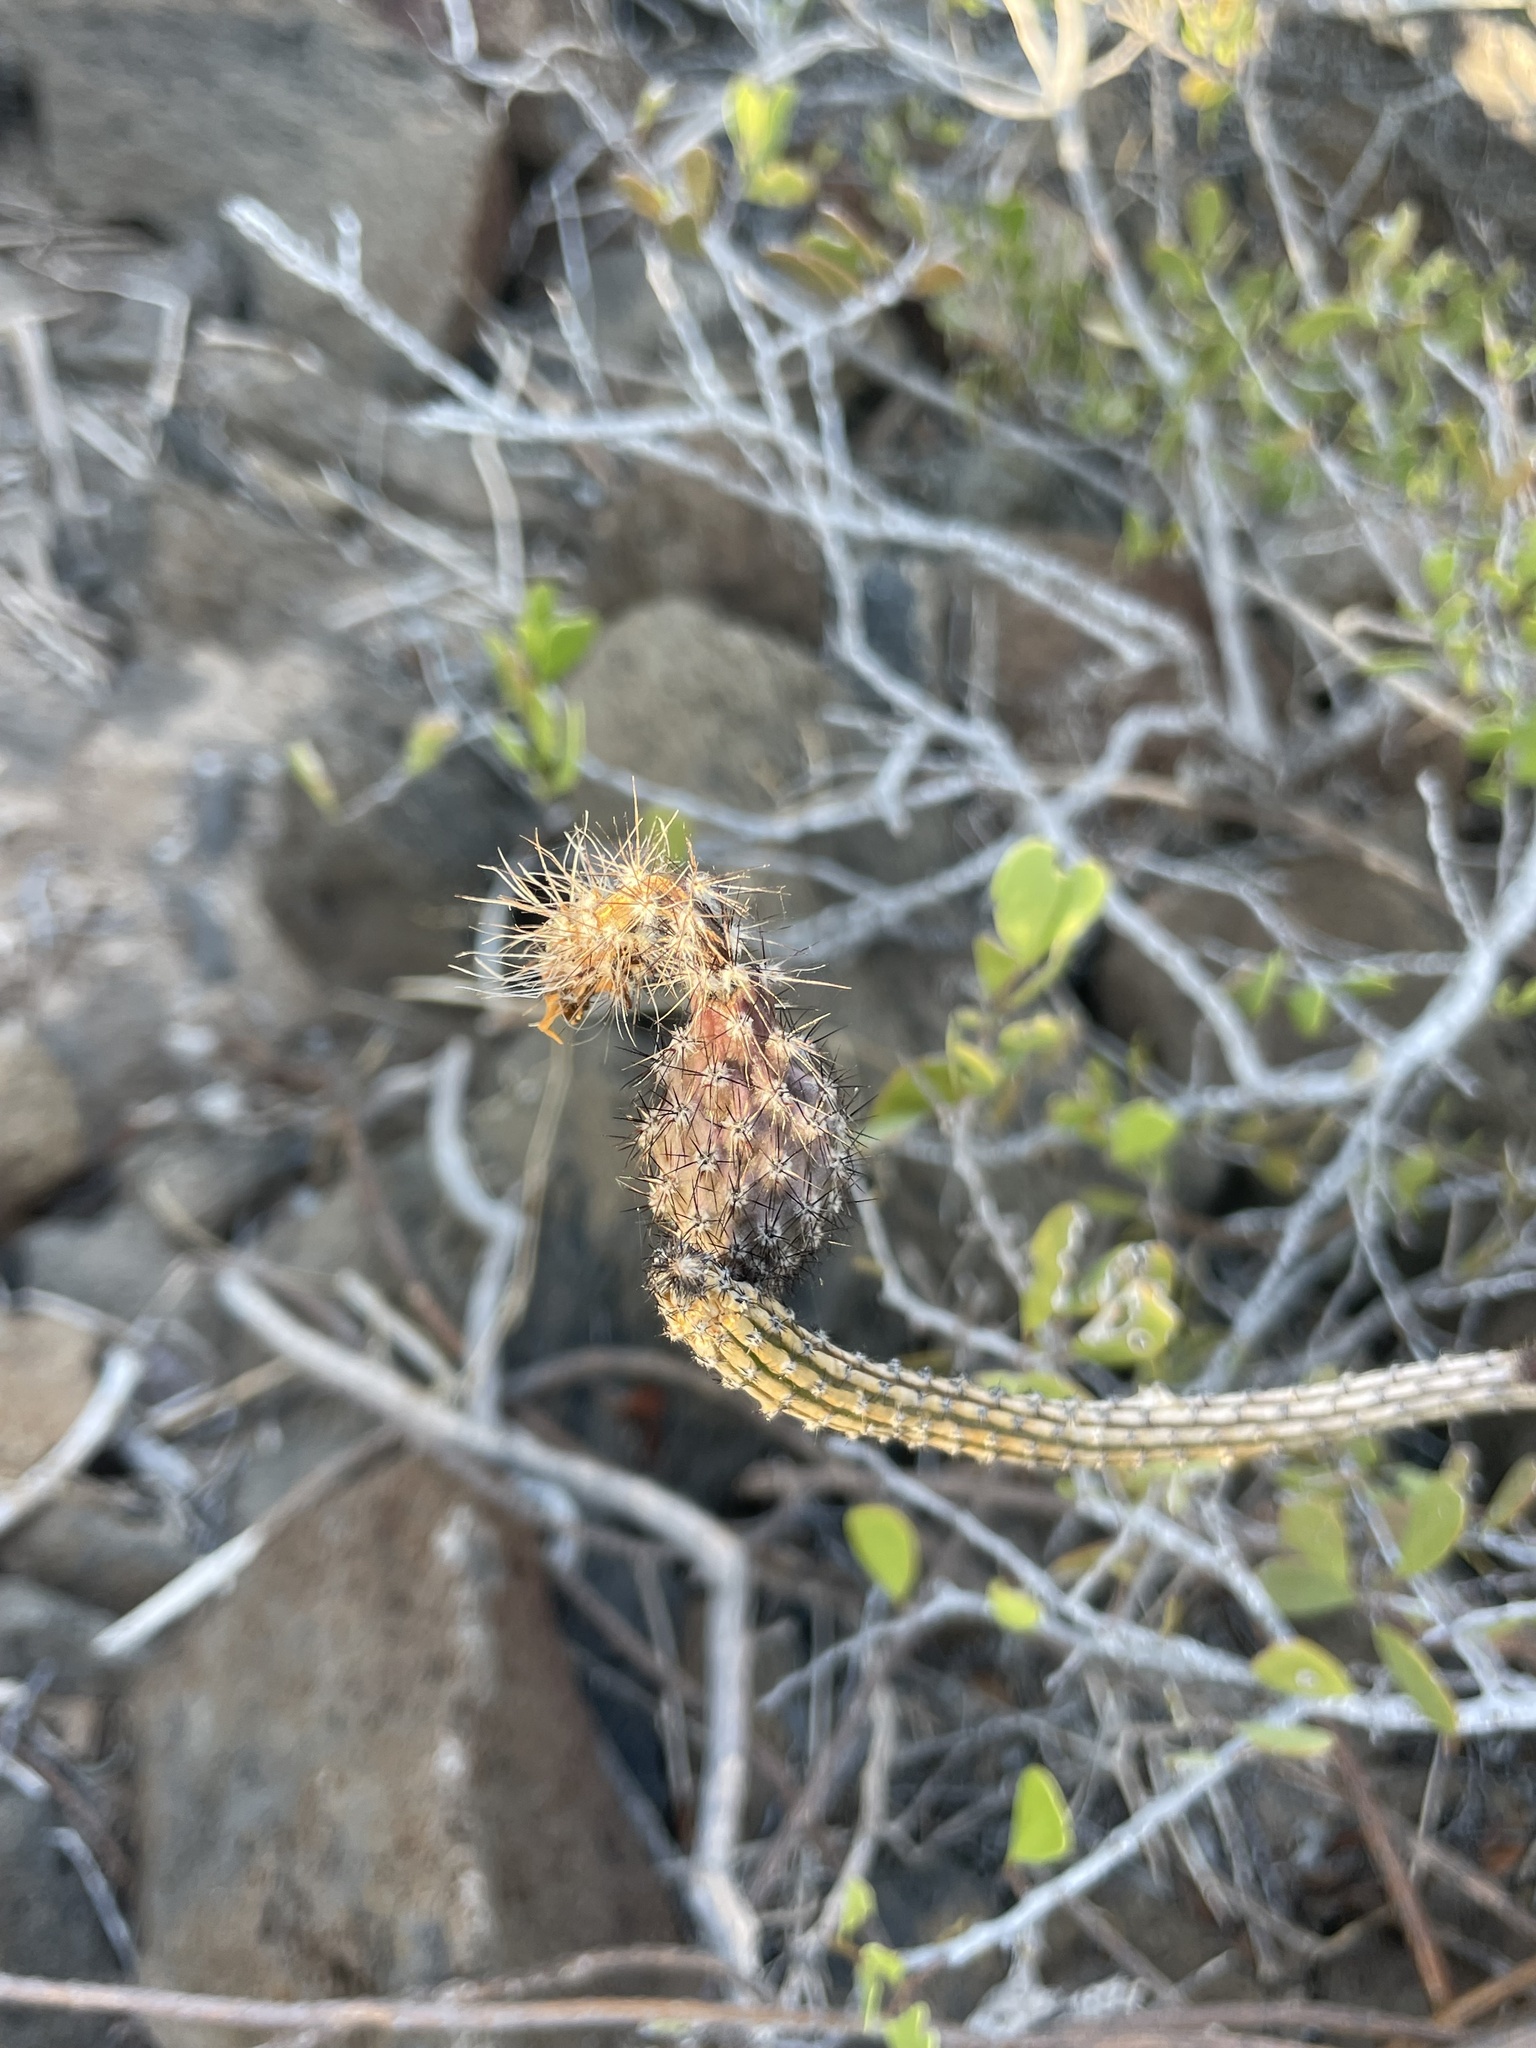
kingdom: Plantae
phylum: Tracheophyta
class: Magnoliopsida
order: Caryophyllales
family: Cactaceae
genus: Peniocereus
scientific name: Peniocereus striatus
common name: Gearstem cactus
